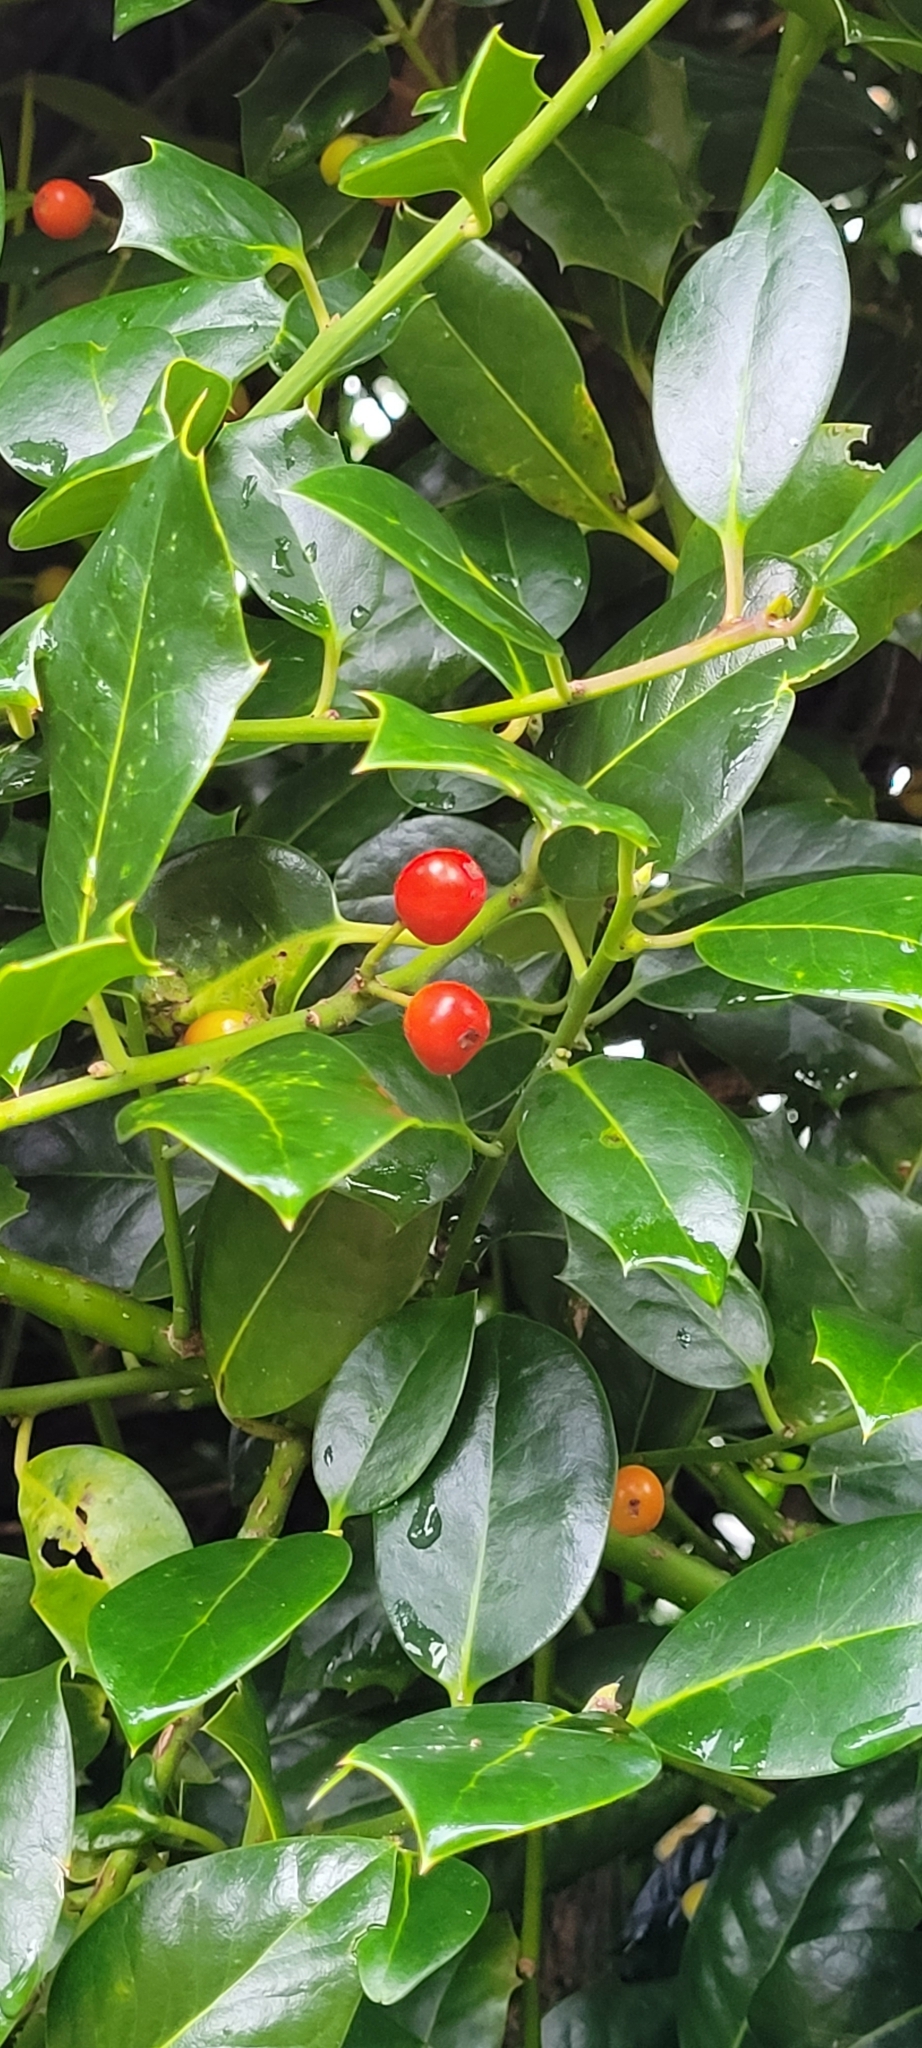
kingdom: Plantae
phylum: Tracheophyta
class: Magnoliopsida
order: Aquifoliales
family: Aquifoliaceae
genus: Ilex
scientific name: Ilex aquifolium
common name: English holly
